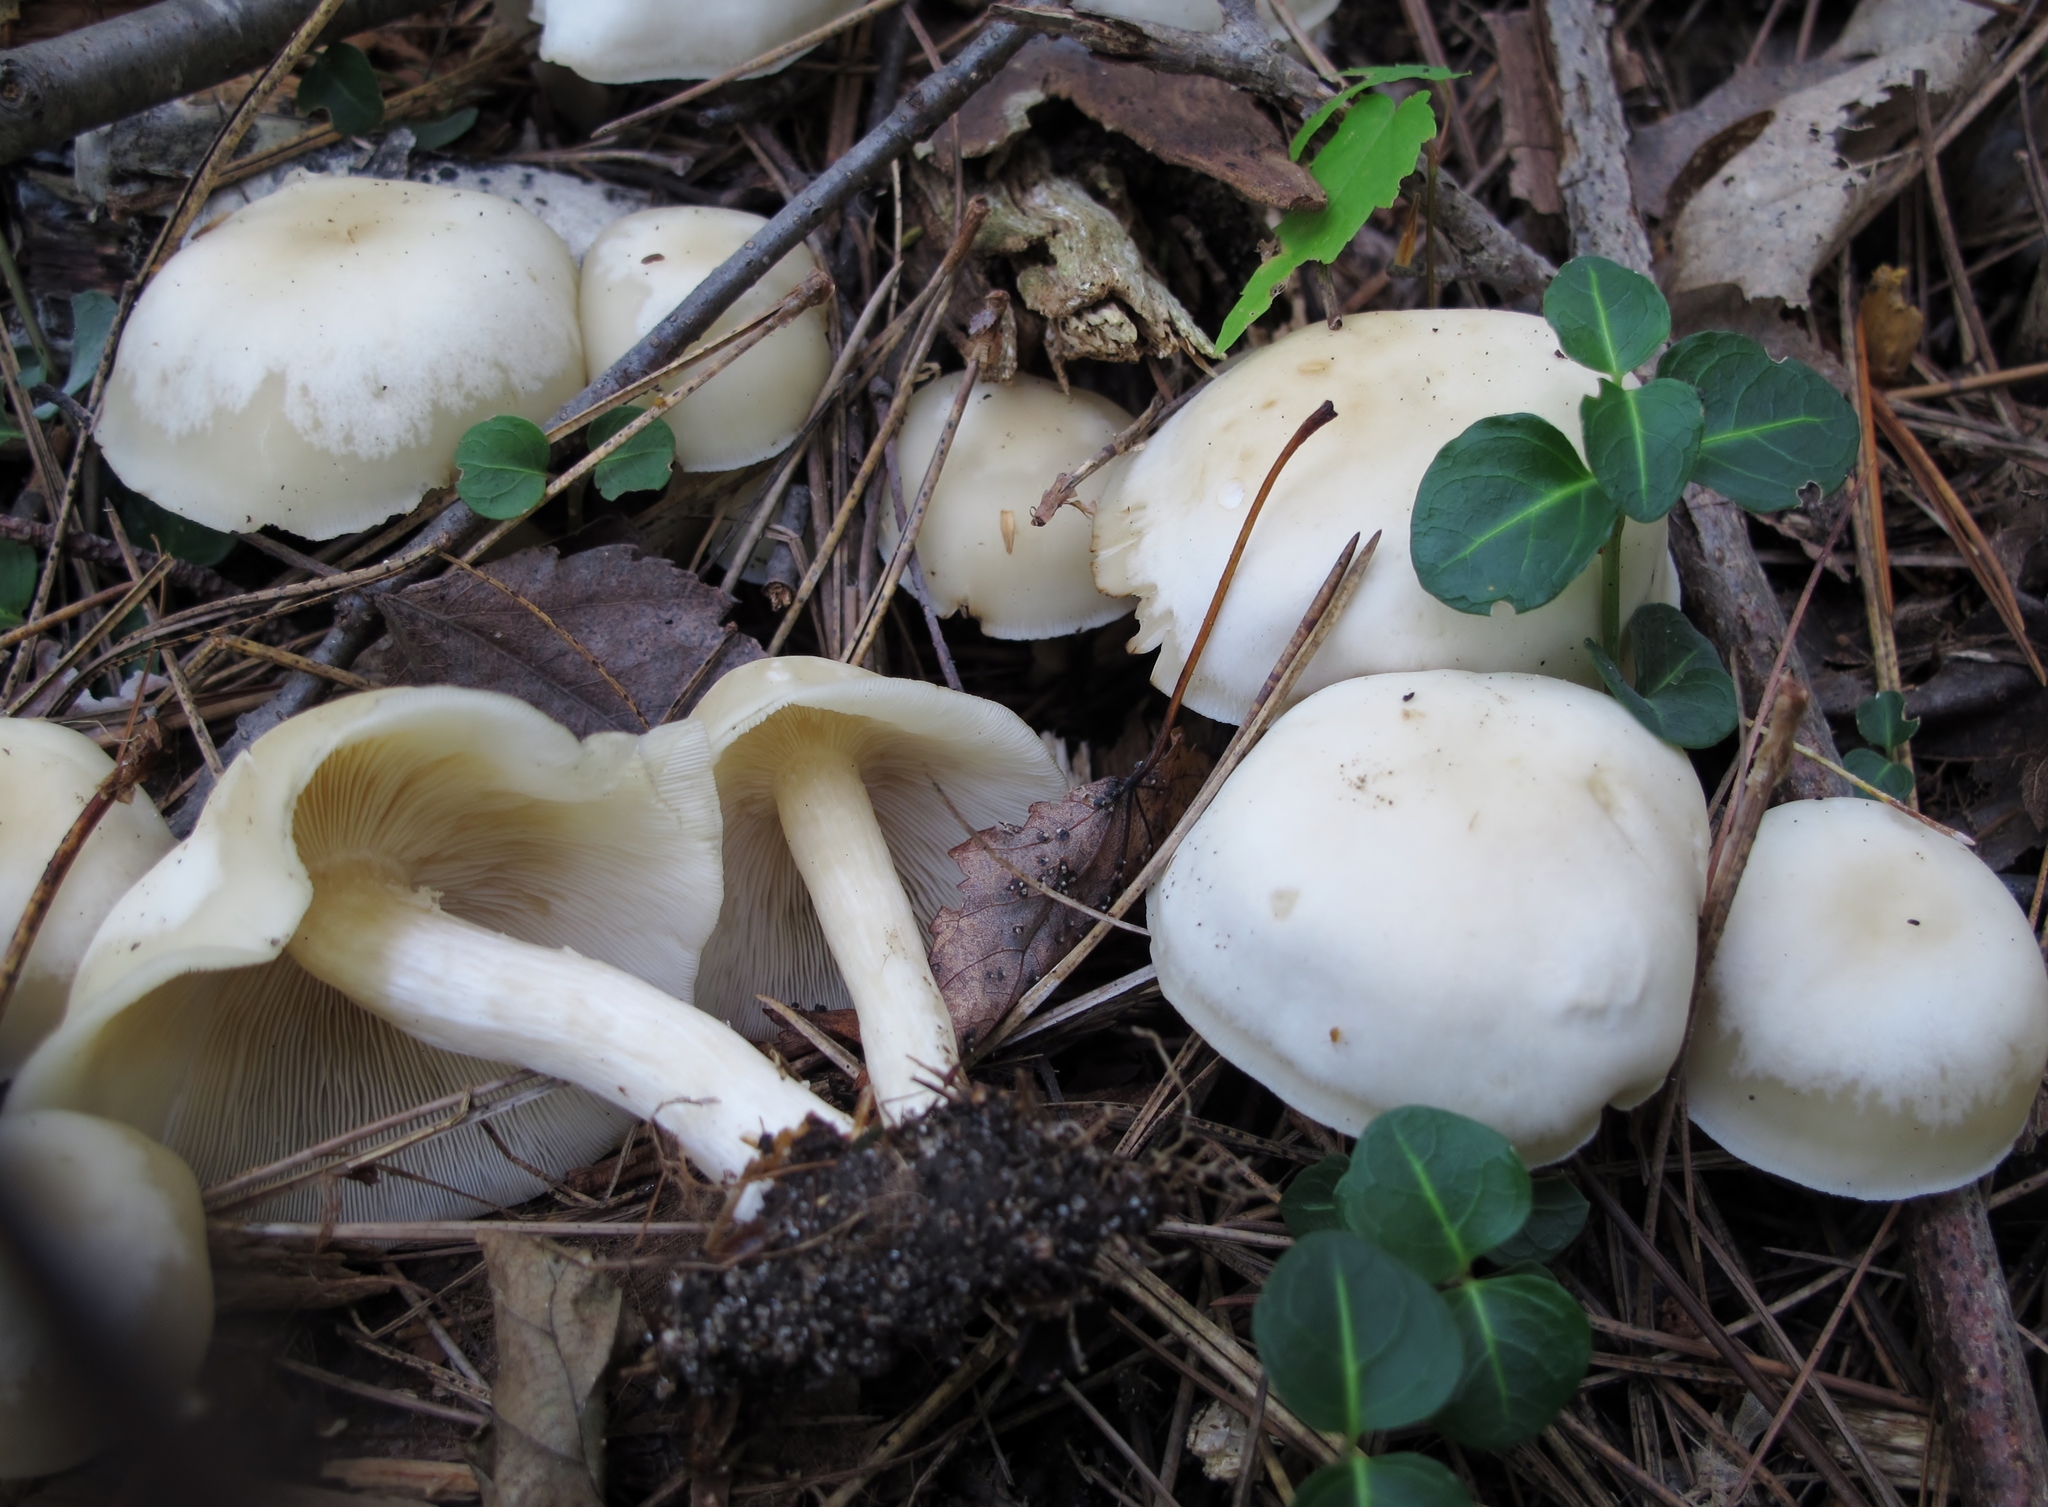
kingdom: Fungi
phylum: Basidiomycota
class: Agaricomycetes
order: Agaricales
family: Tricholomataceae
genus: Lepista
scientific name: Lepista subconnexa
